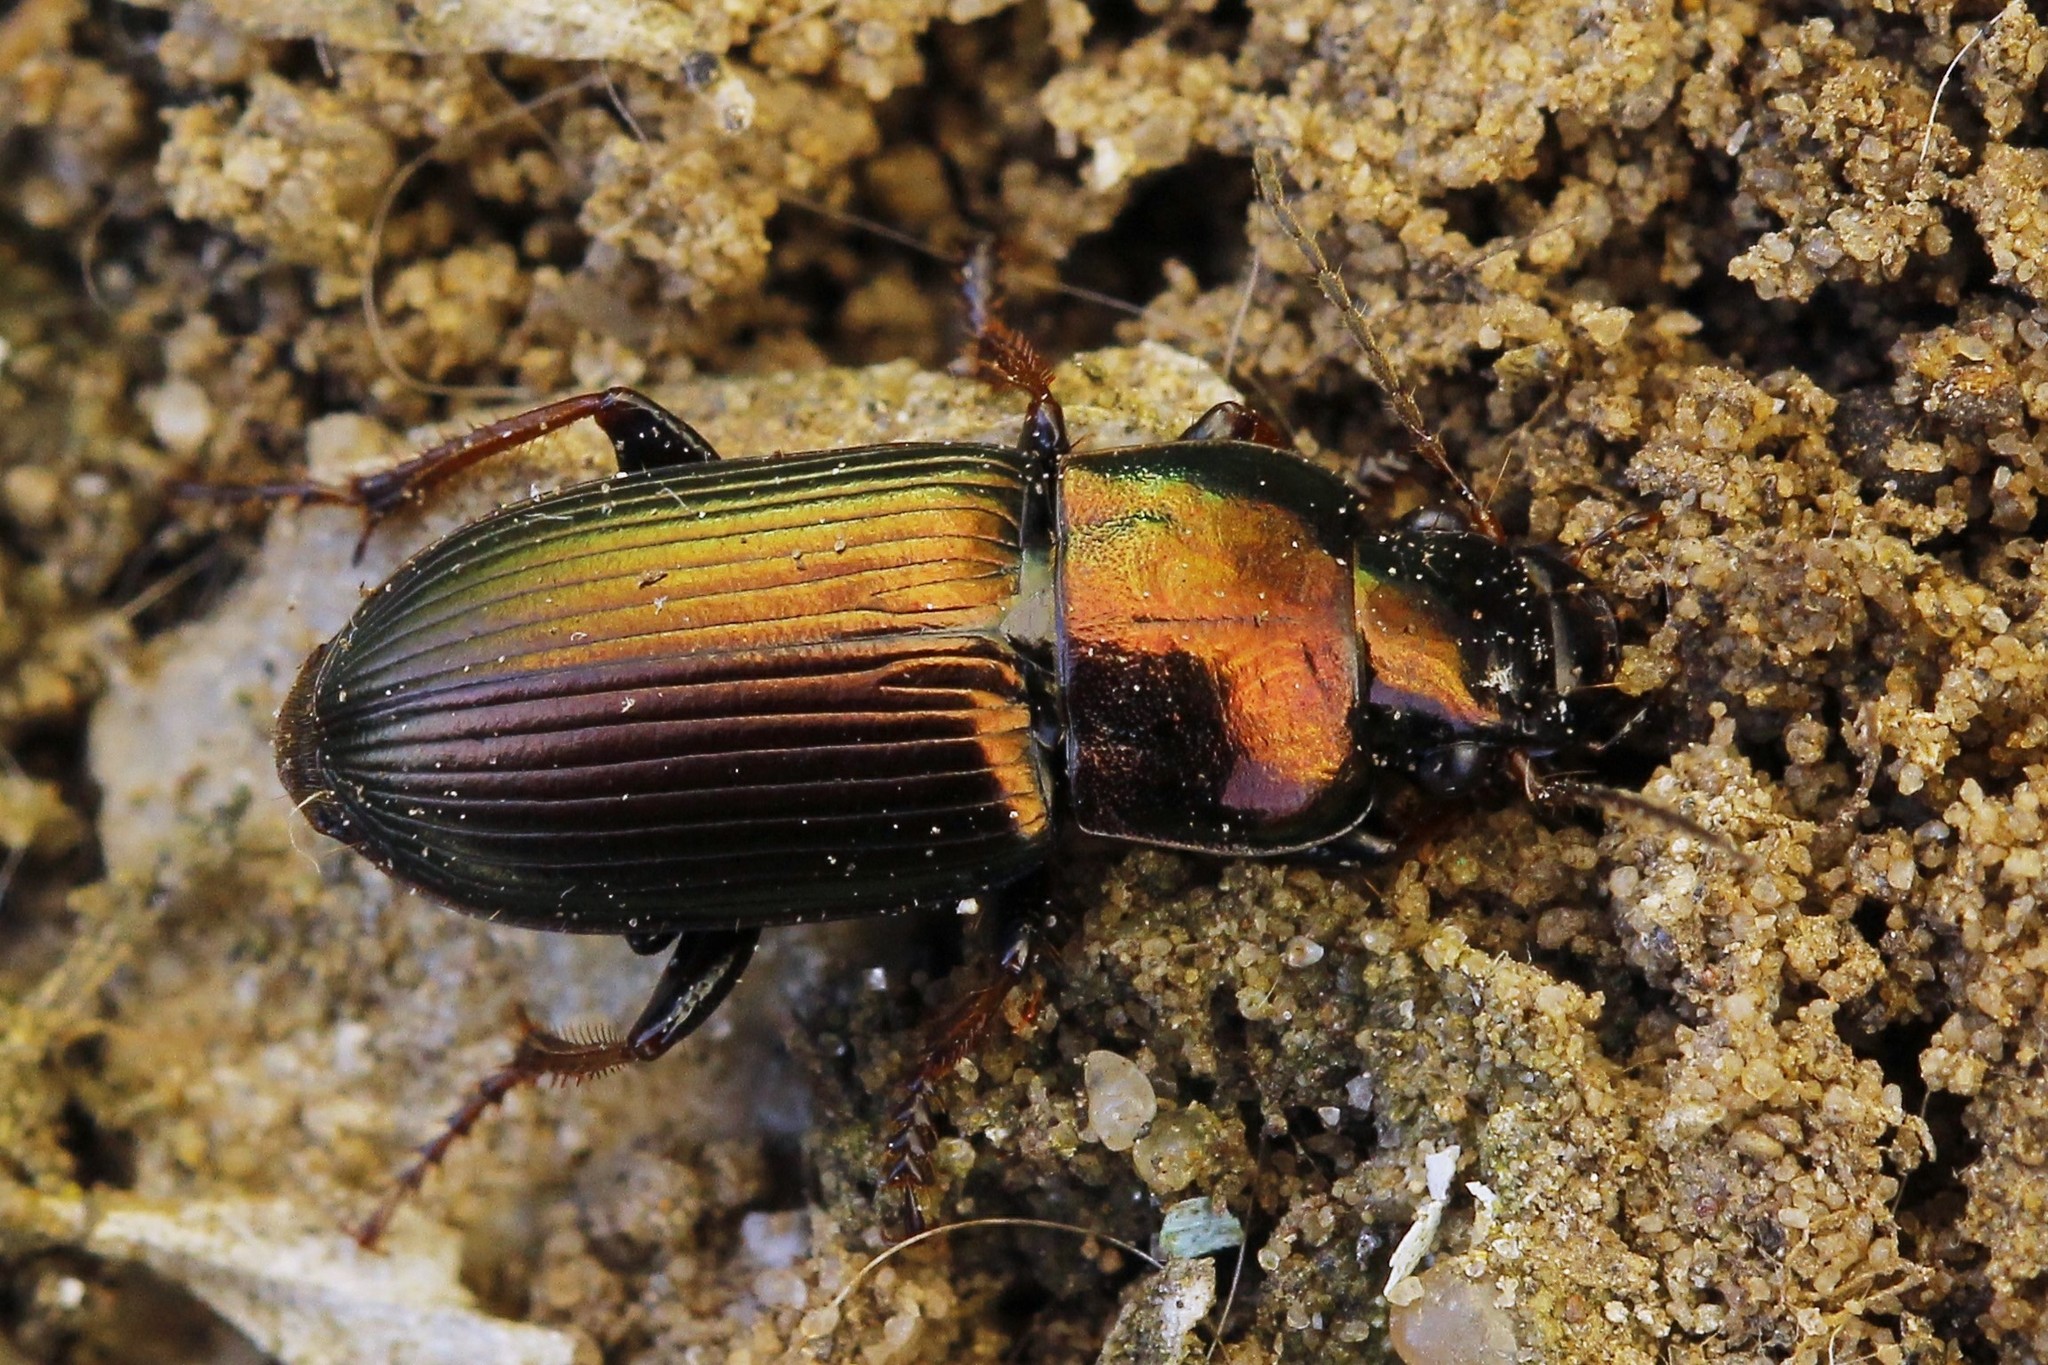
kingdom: Animalia
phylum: Arthropoda
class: Insecta
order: Coleoptera
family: Carabidae
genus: Harpalus
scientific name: Harpalus distinguendus
